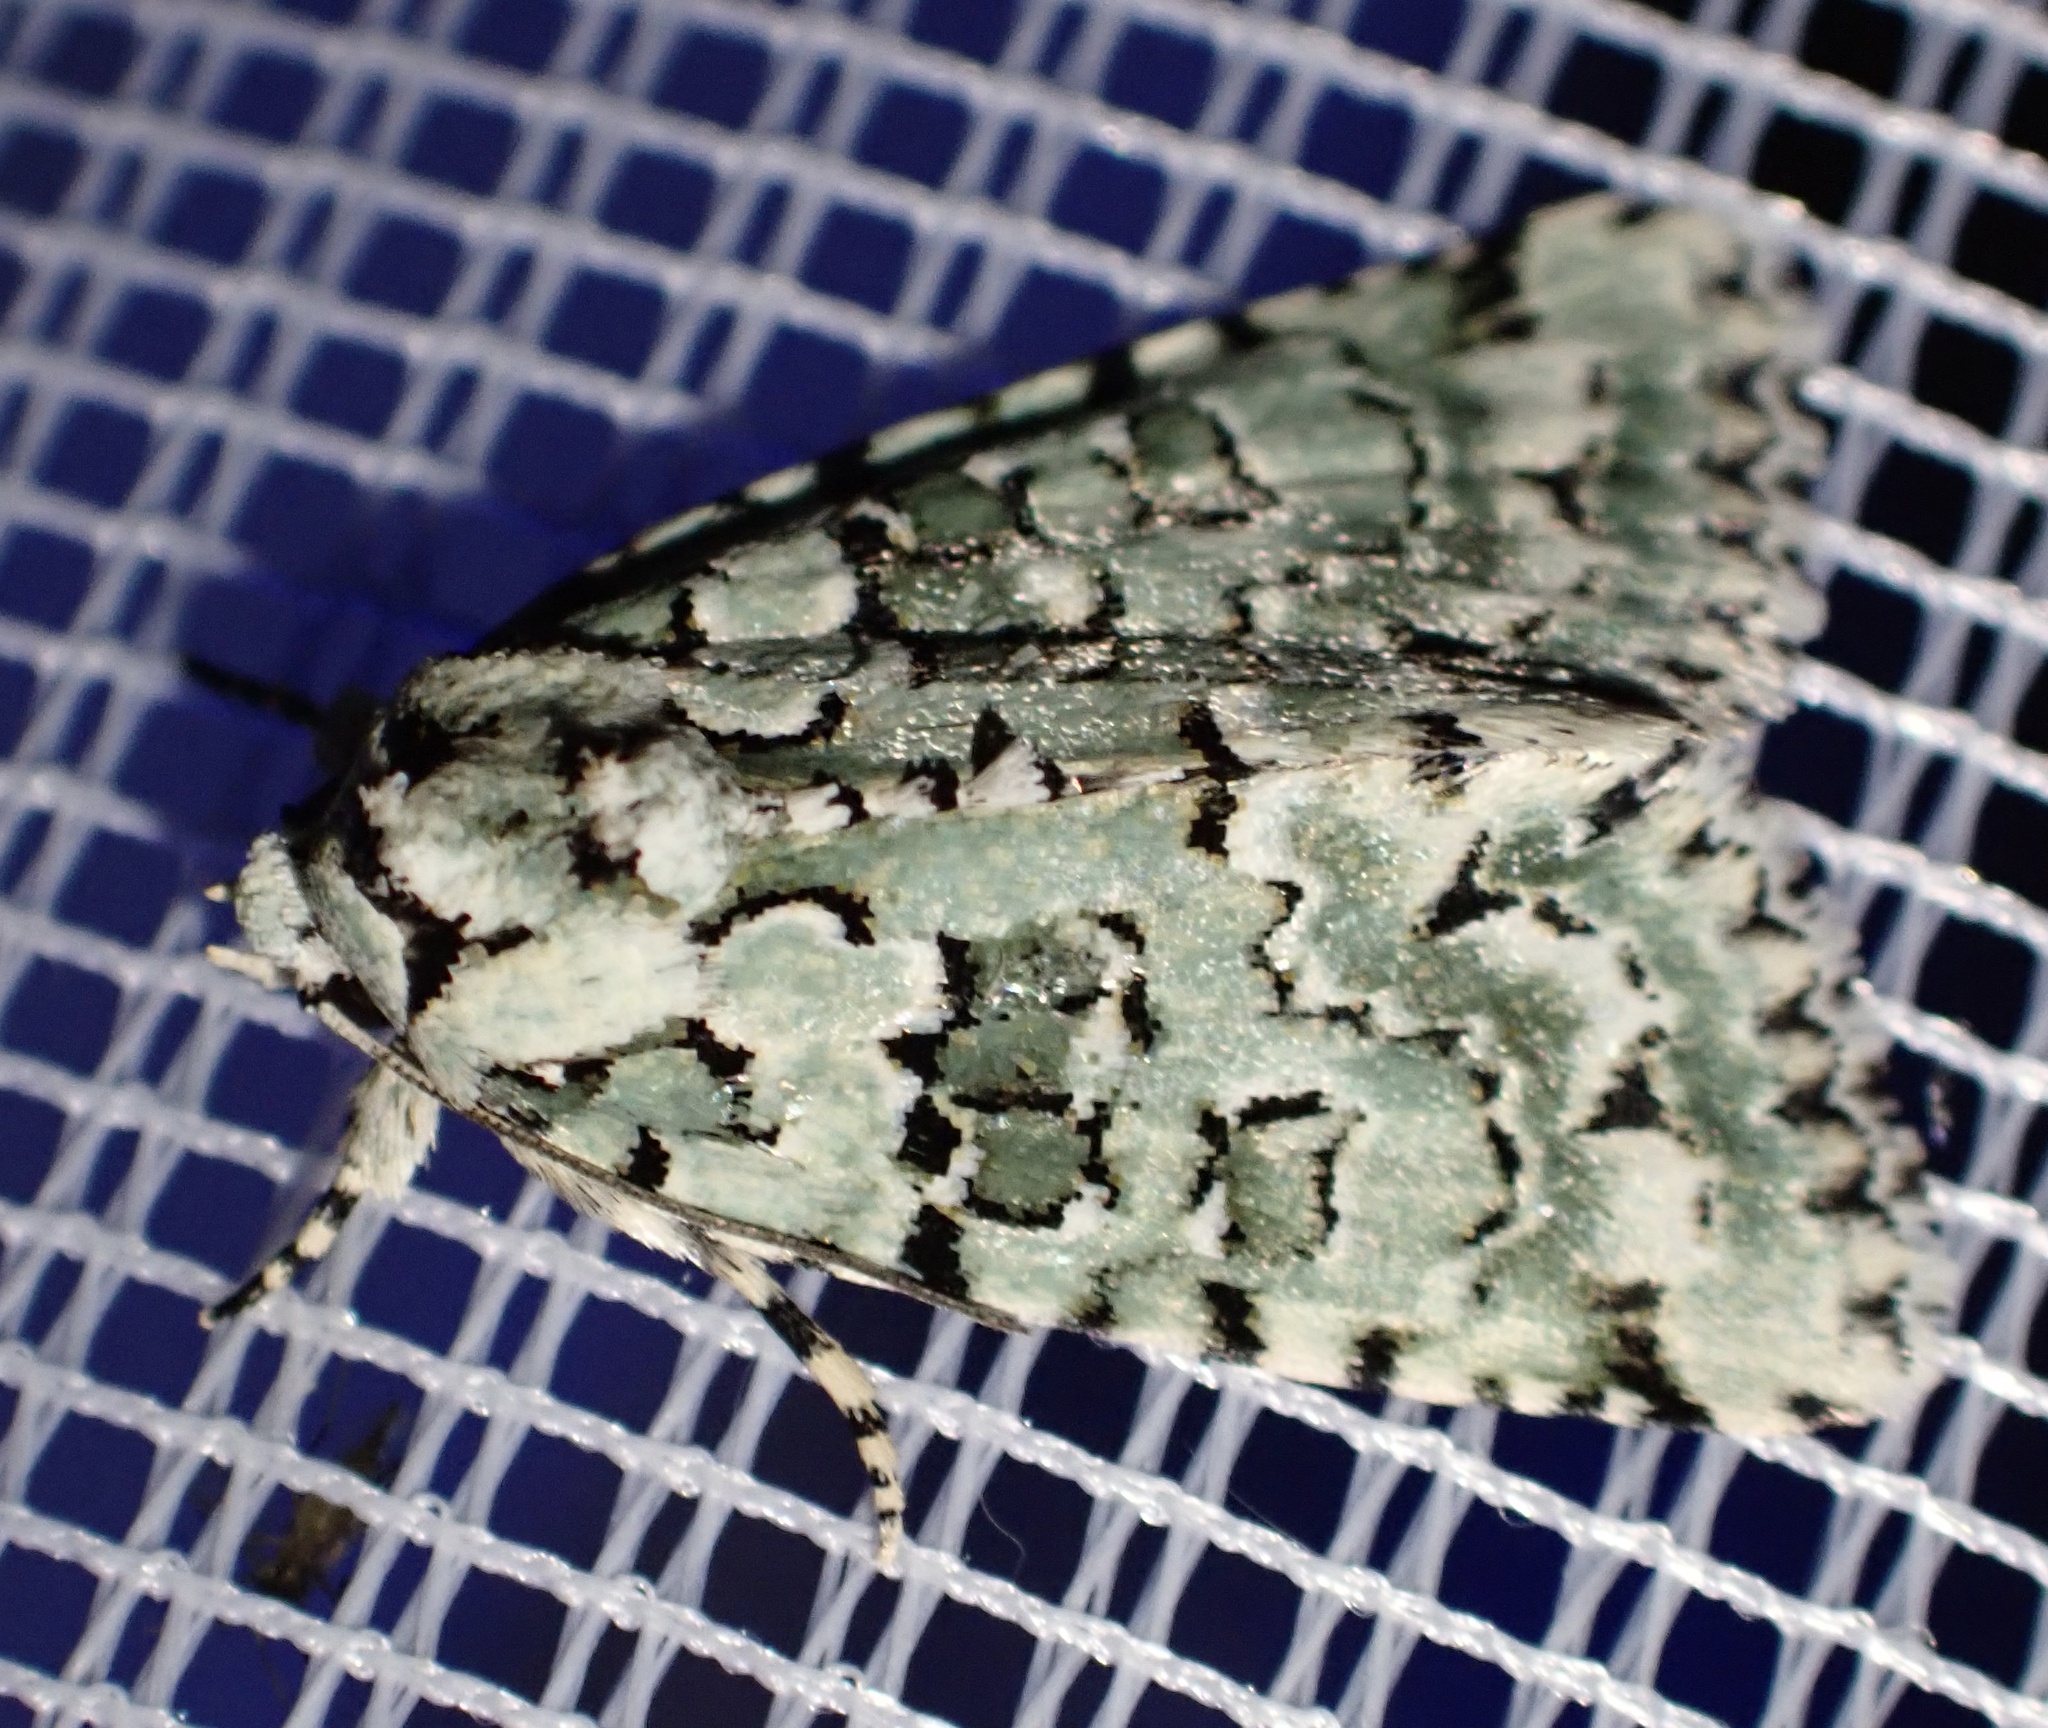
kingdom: Animalia
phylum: Arthropoda
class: Insecta
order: Lepidoptera
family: Noctuidae
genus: Nyctobrya
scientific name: Nyctobrya muralis
